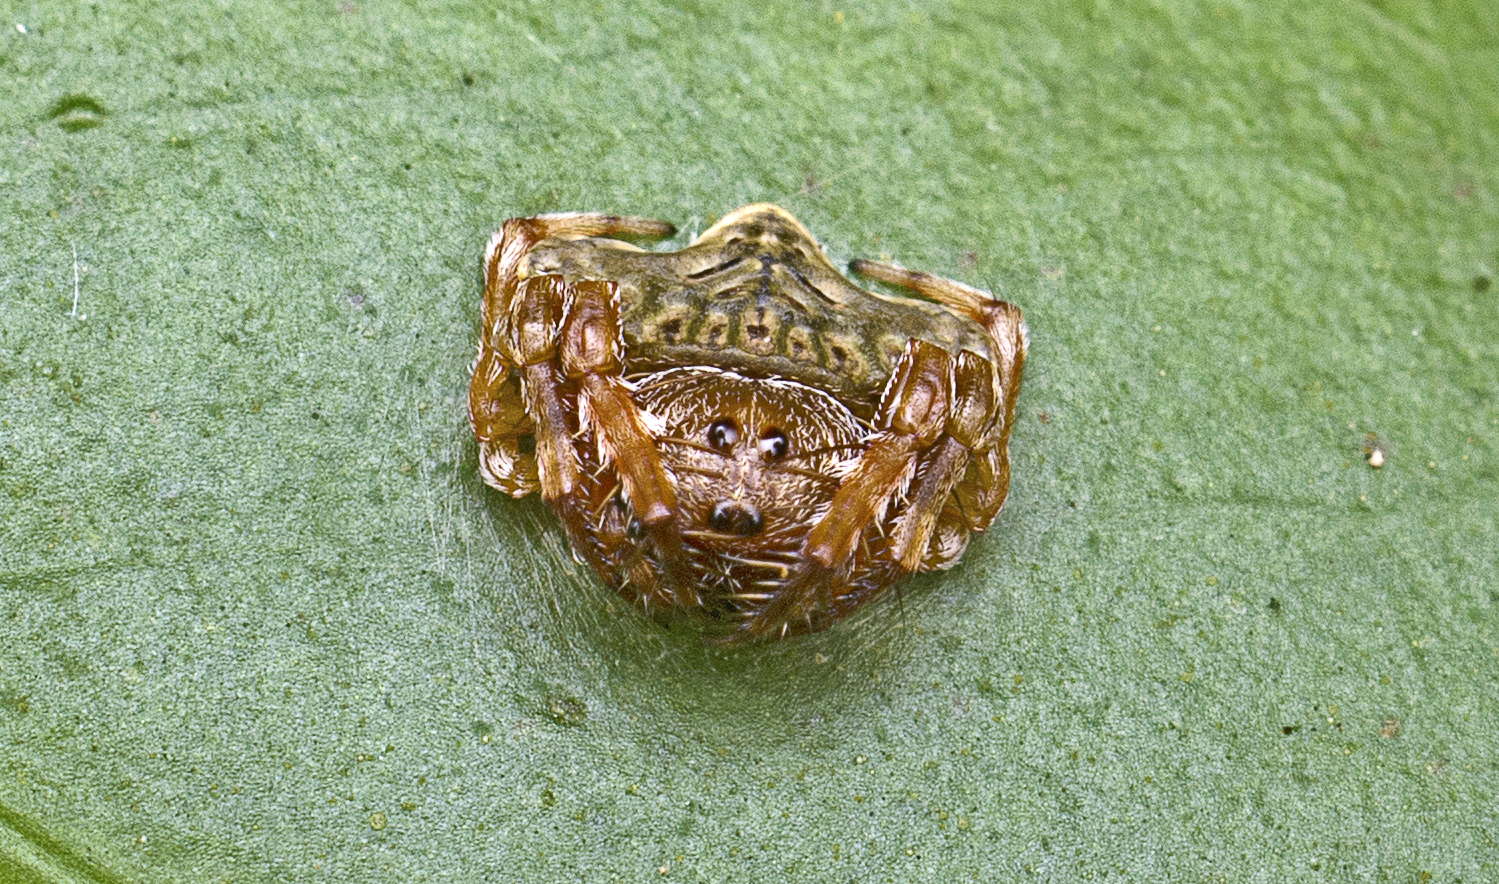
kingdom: Animalia
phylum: Arthropoda
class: Arachnida
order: Araneae
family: Arkyidae
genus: Arkys
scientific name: Arkys speechleyi
